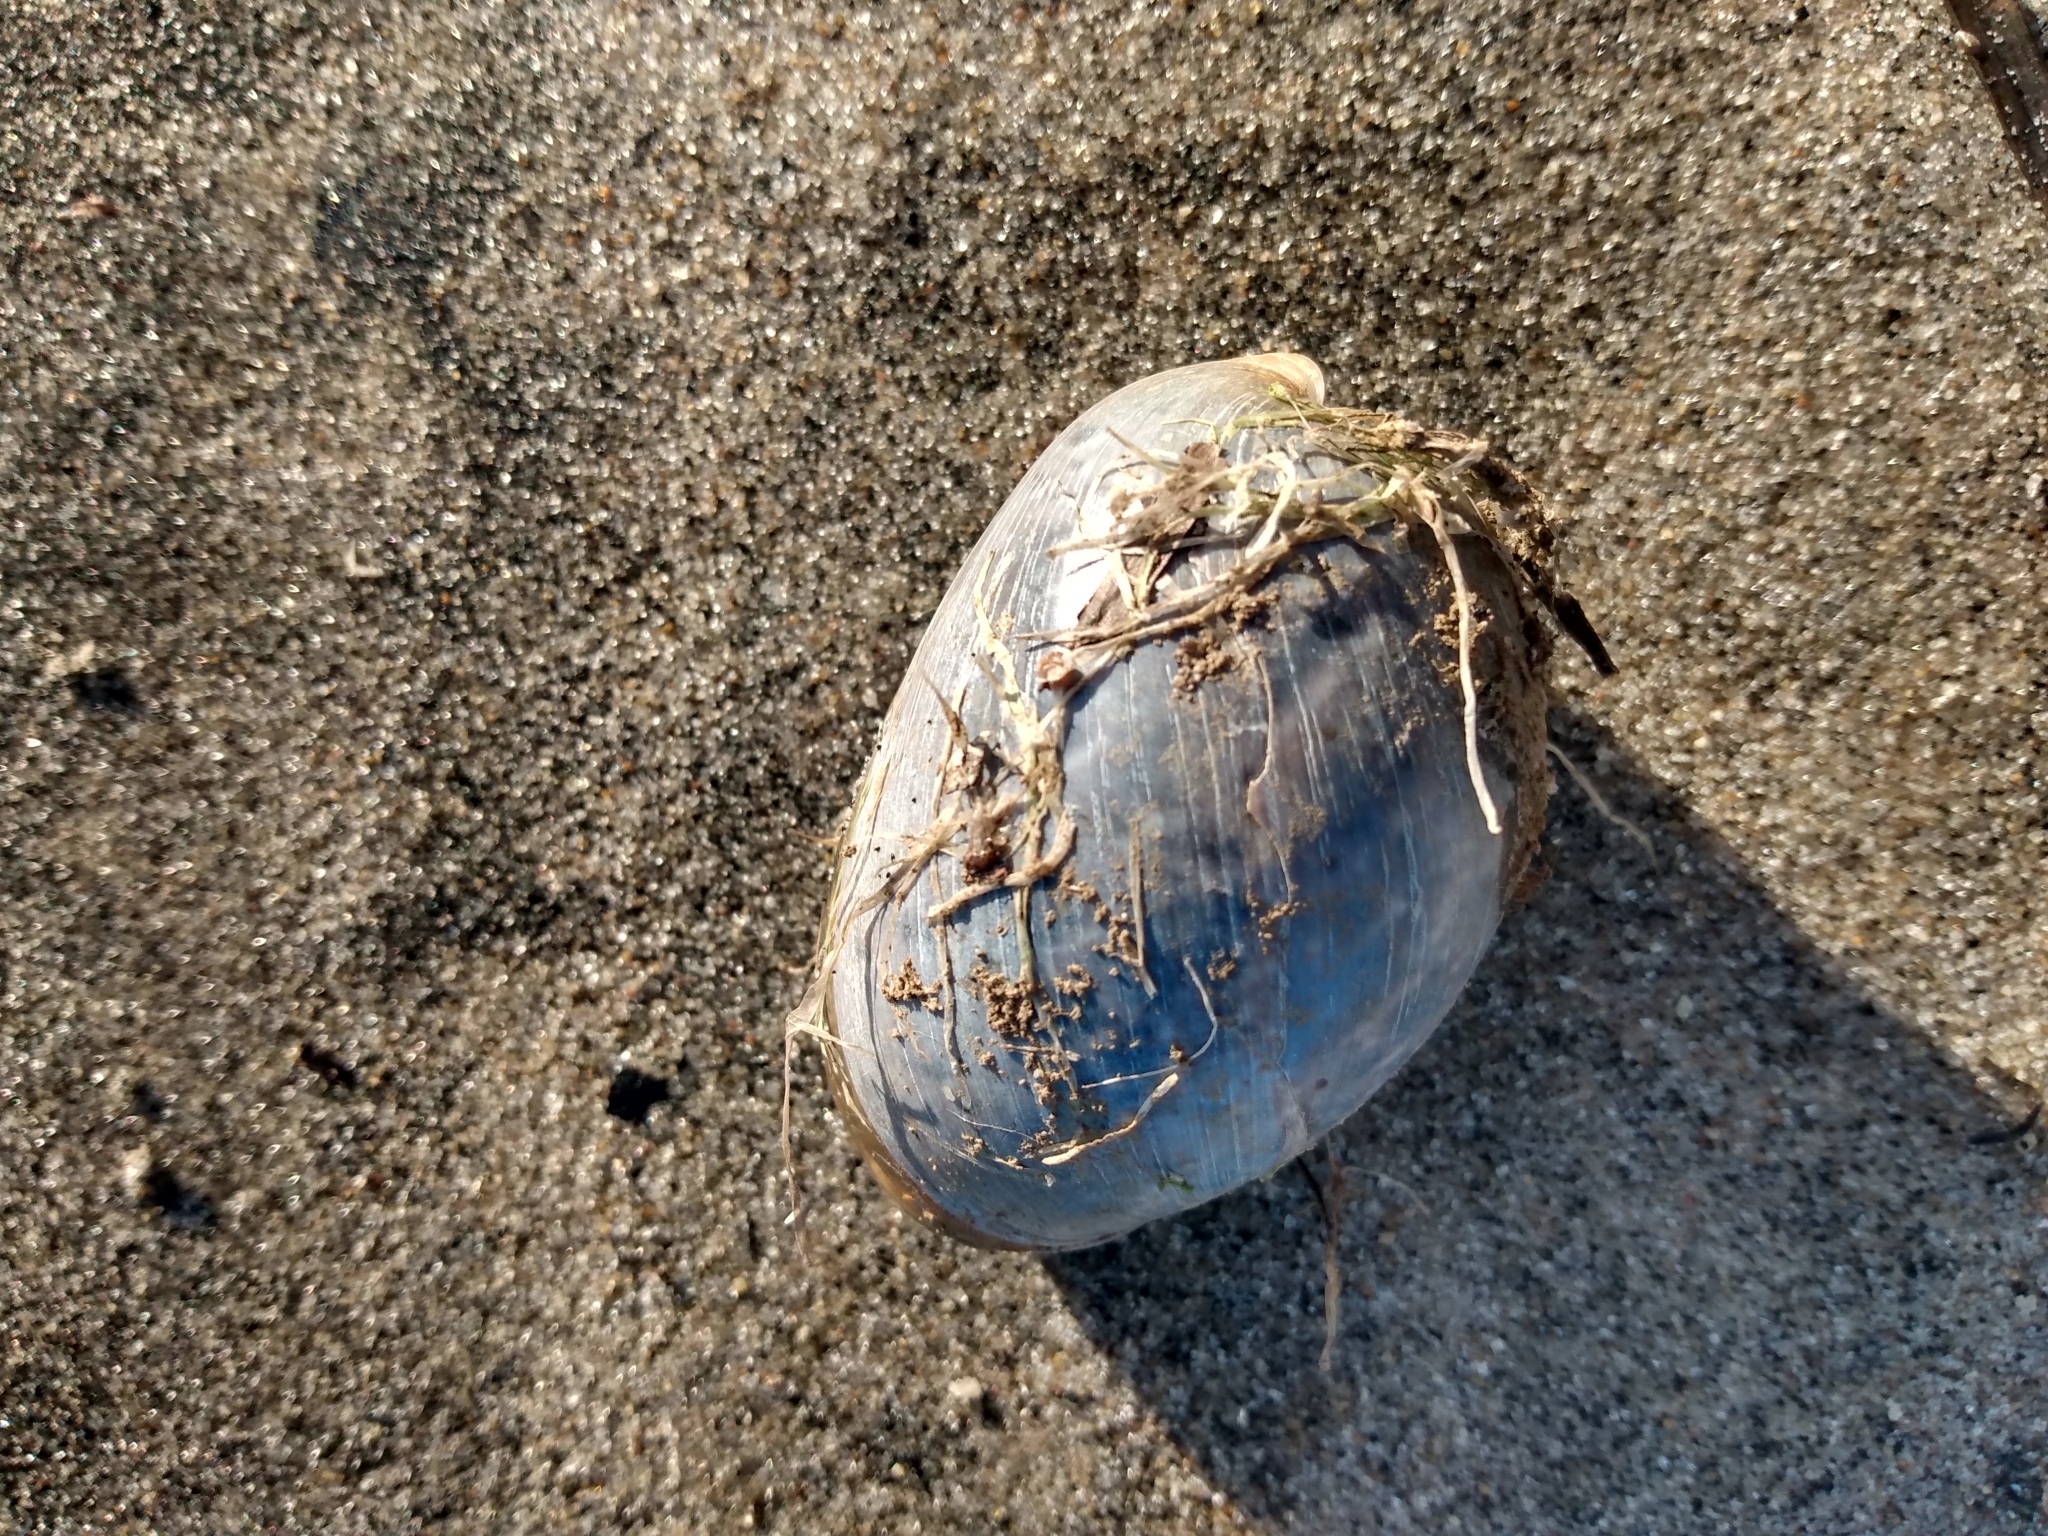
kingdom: Animalia
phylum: Mollusca
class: Gastropoda
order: Cephalaspidea
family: Bullidae
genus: Bulla
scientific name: Bulla gouldiana
